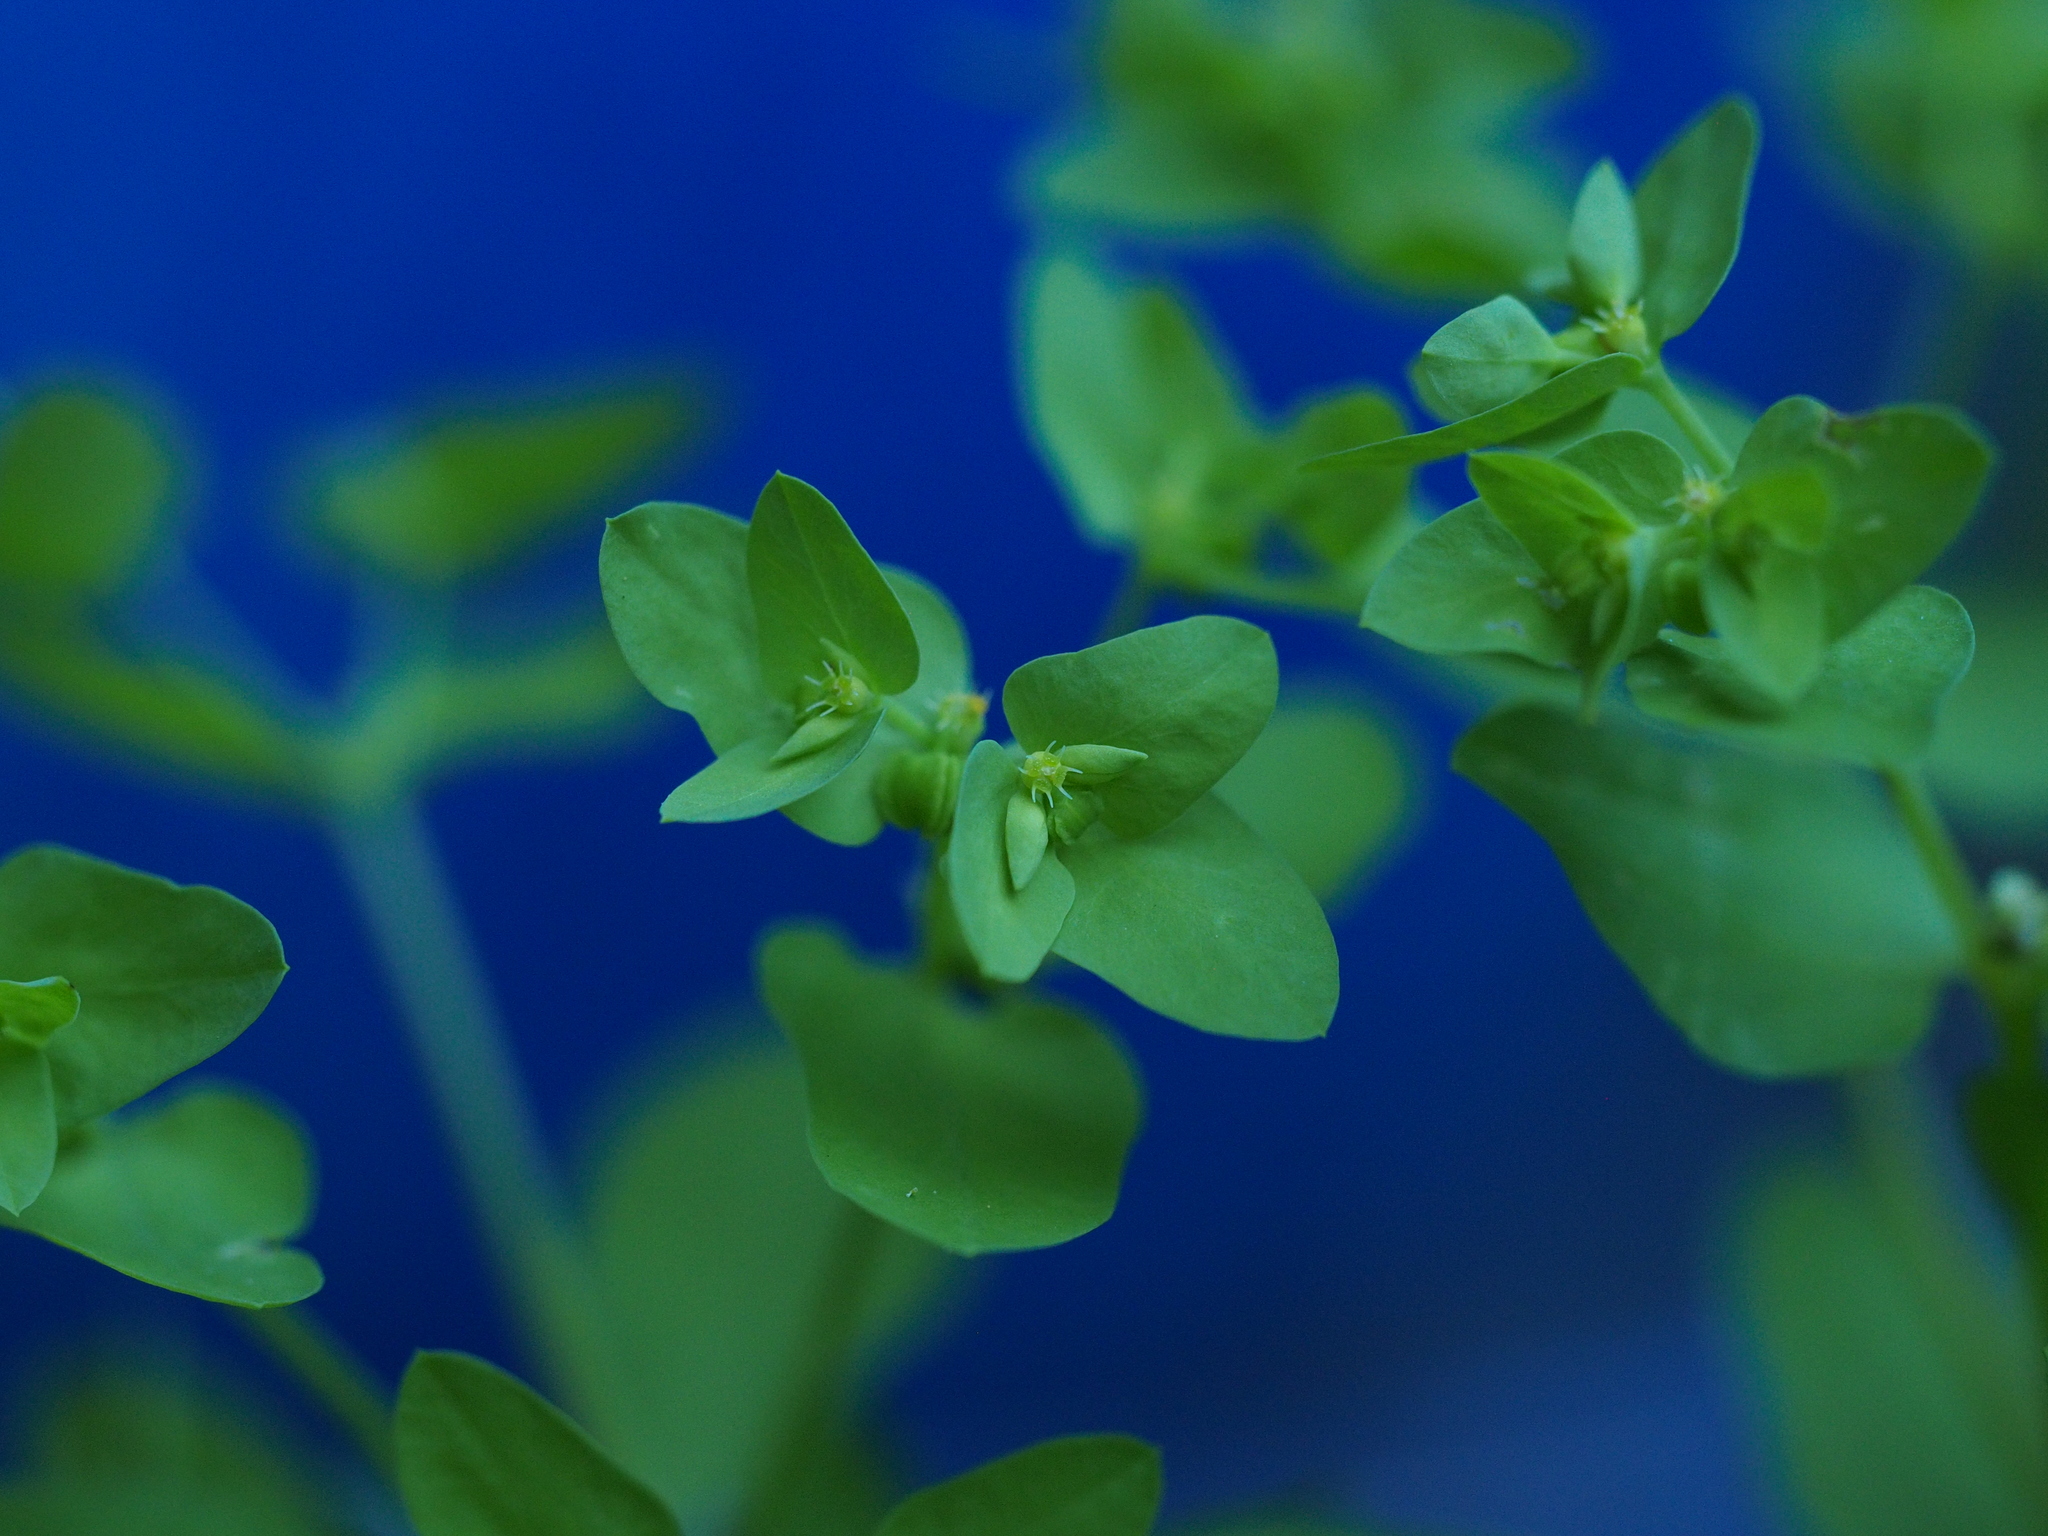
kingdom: Plantae
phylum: Tracheophyta
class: Magnoliopsida
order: Malpighiales
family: Euphorbiaceae
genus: Euphorbia
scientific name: Euphorbia peplus
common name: Petty spurge
